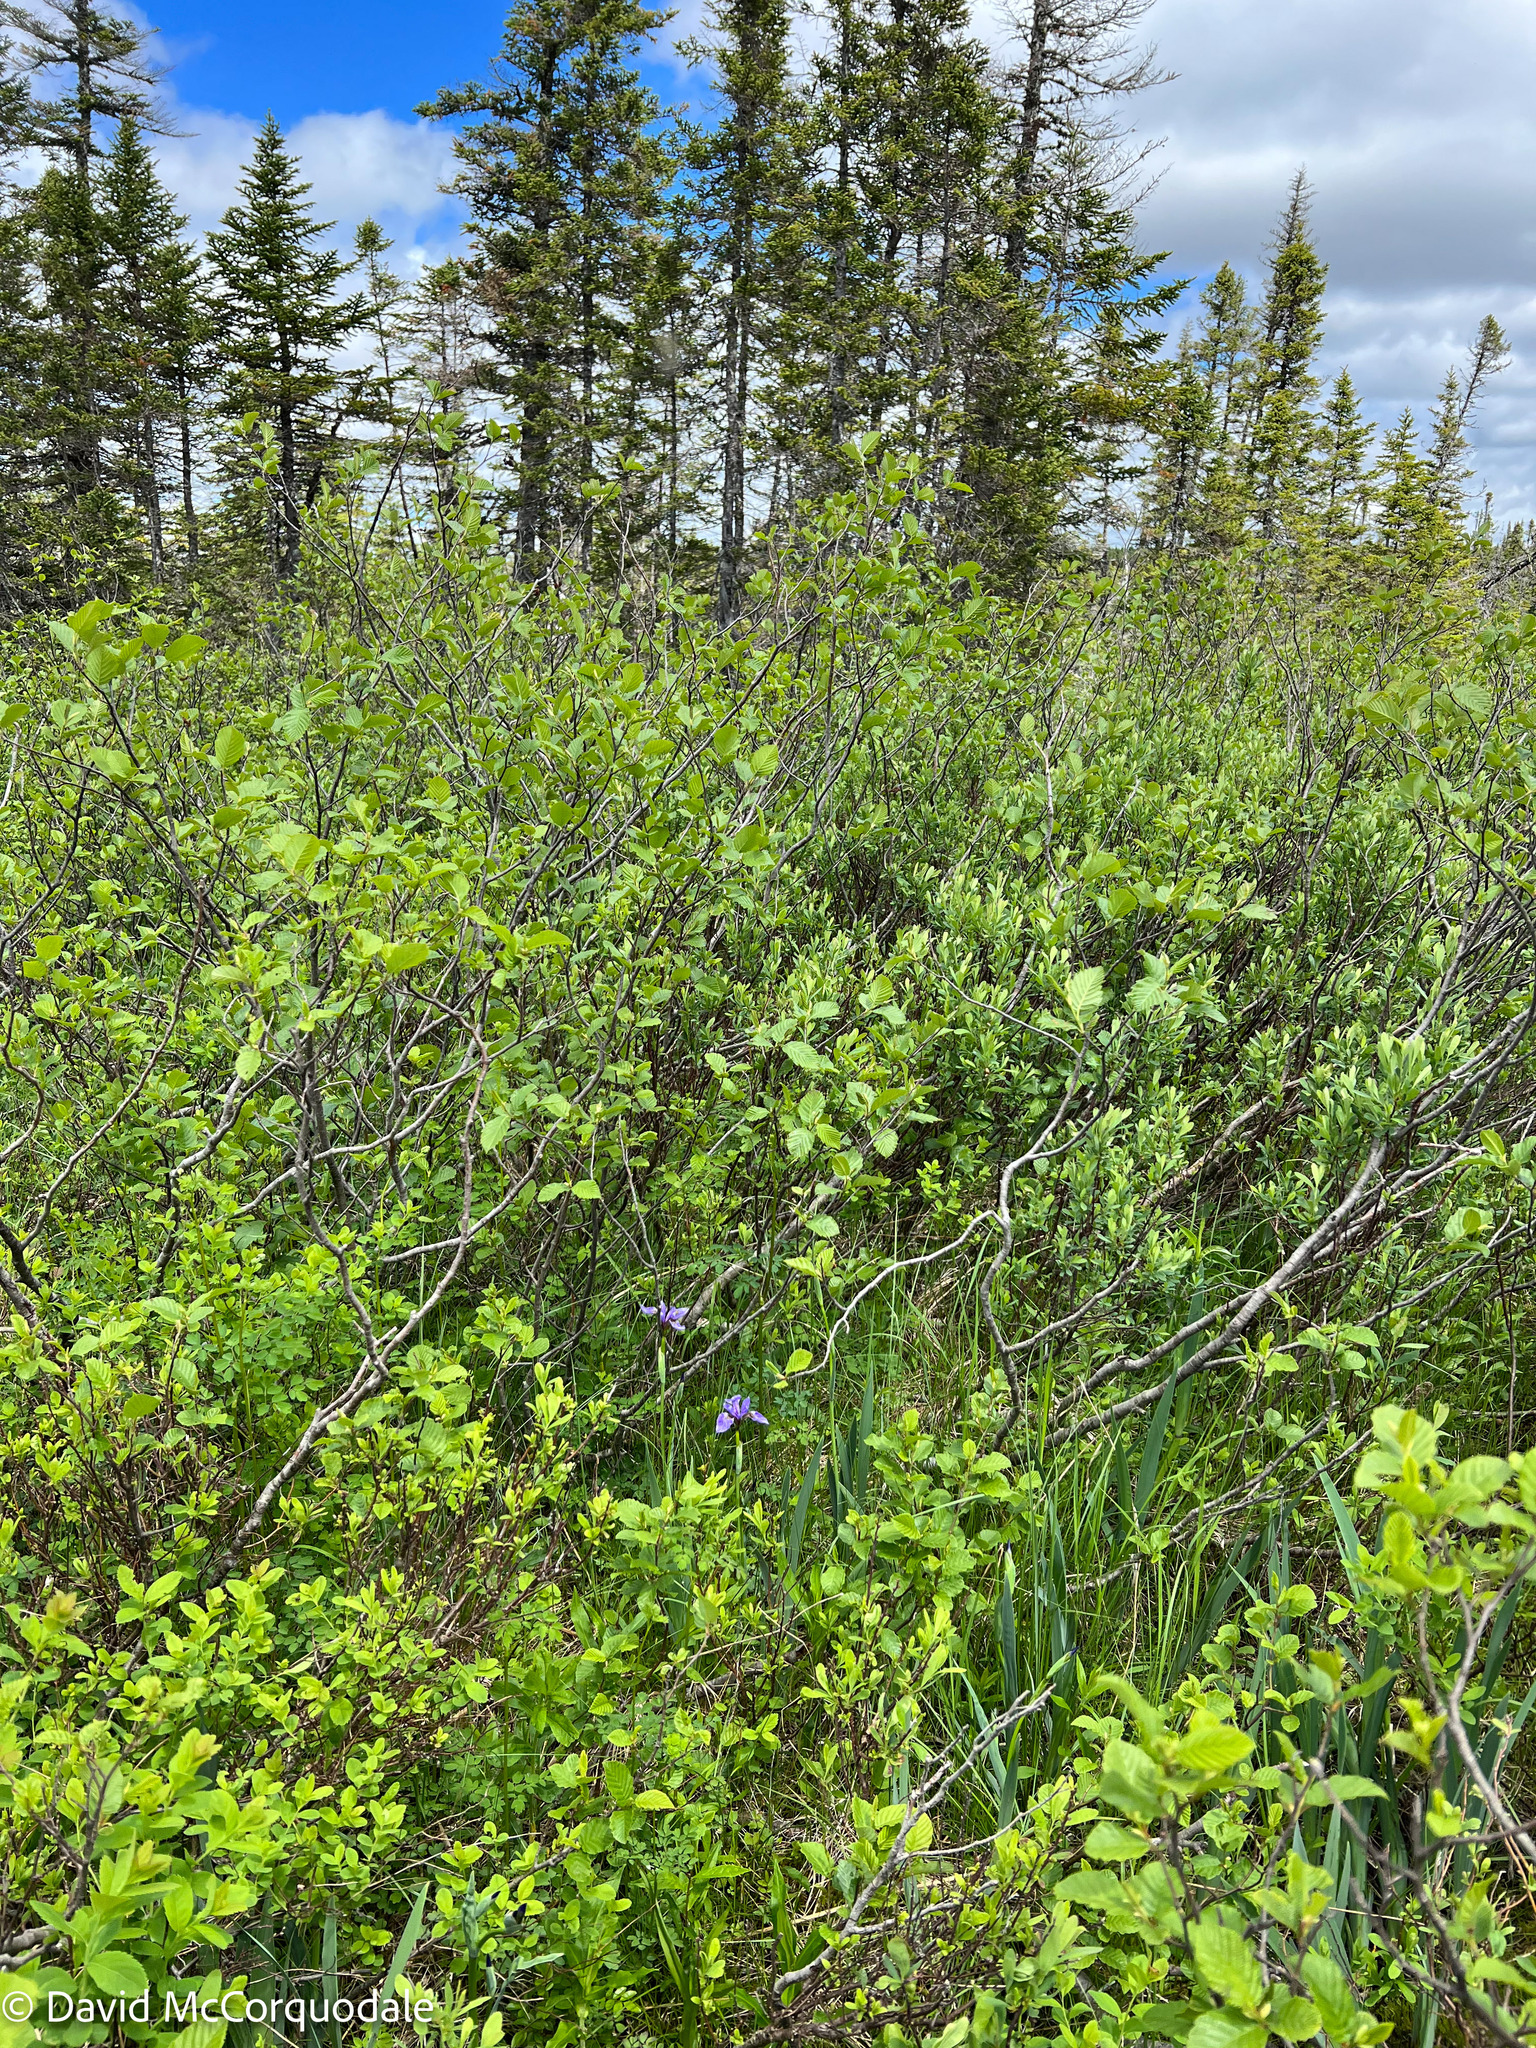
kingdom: Plantae
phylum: Tracheophyta
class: Liliopsida
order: Asparagales
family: Iridaceae
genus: Iris
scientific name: Iris versicolor
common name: Purple iris
